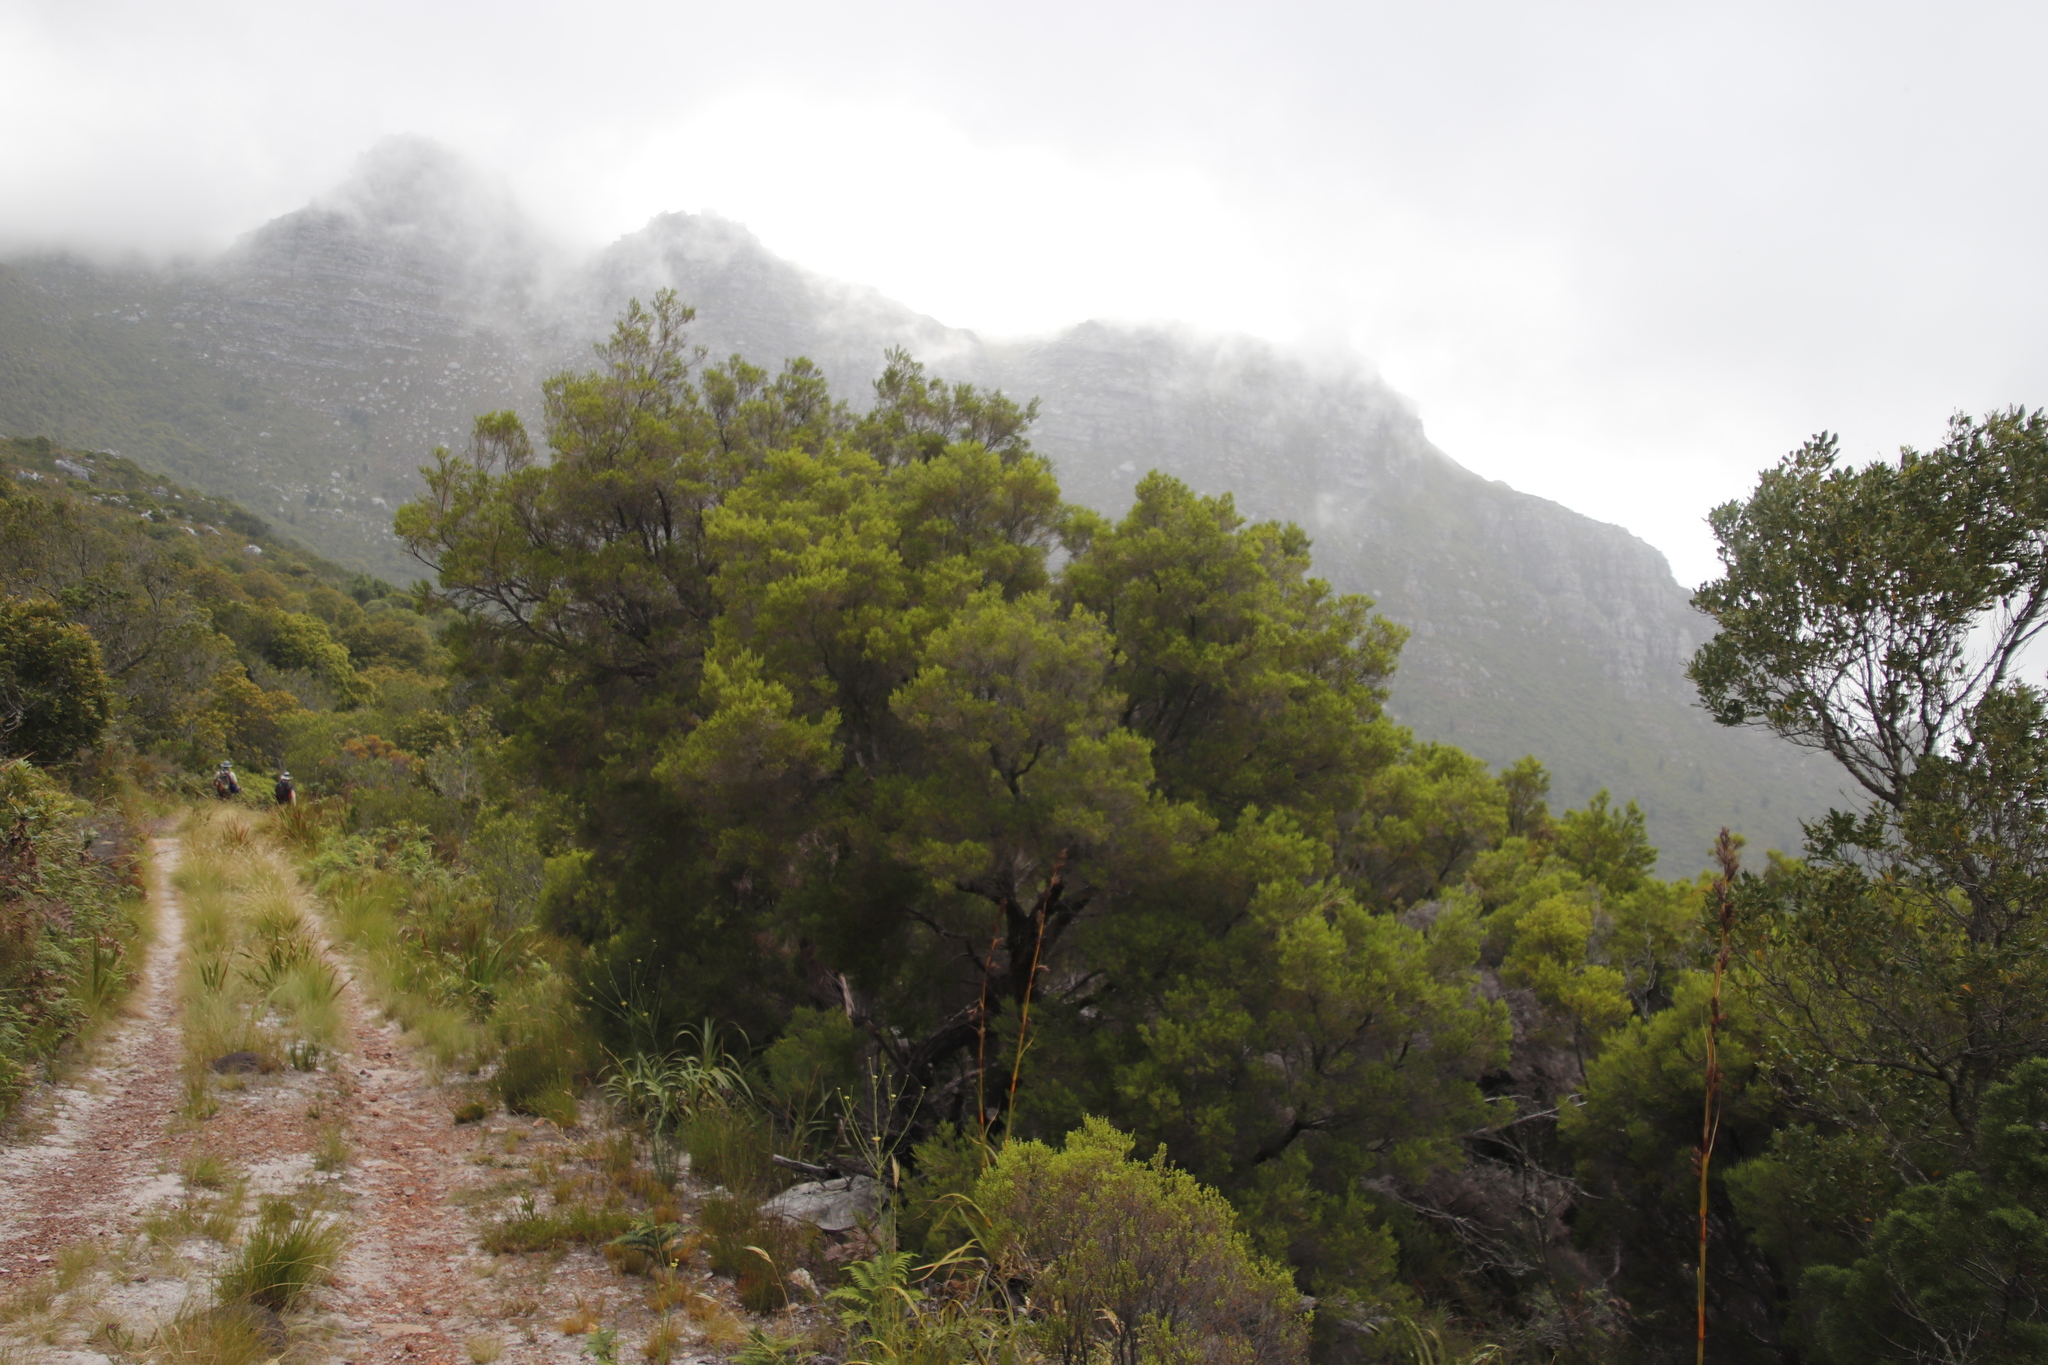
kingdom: Plantae
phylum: Tracheophyta
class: Magnoliopsida
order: Ericales
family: Ericaceae
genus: Erica
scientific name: Erica tristis
